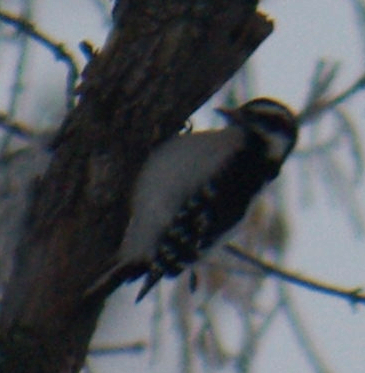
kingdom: Animalia
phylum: Chordata
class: Aves
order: Piciformes
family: Picidae
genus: Dryobates
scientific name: Dryobates pubescens
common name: Downy woodpecker
